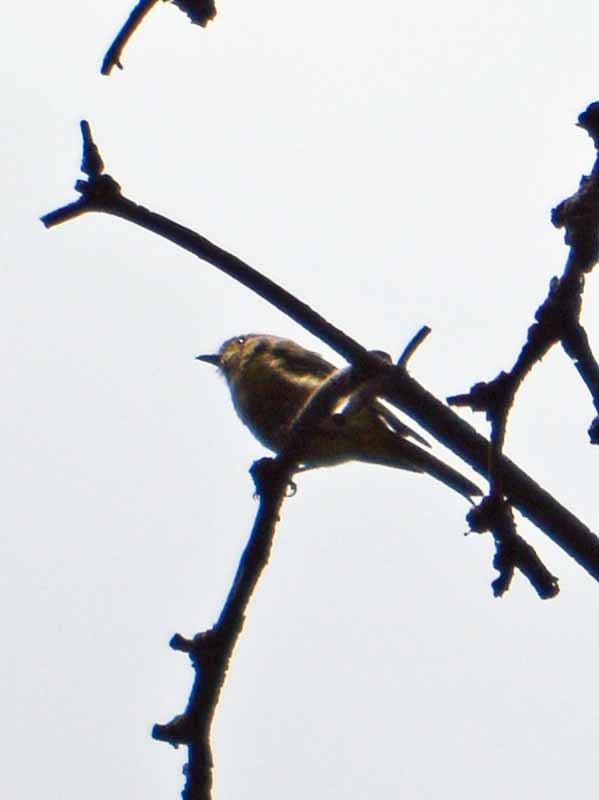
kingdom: Animalia
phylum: Chordata
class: Aves
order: Passeriformes
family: Tyrannidae
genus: Empidonax
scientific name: Empidonax fulvifrons
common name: Buff-breasted flycatcher
